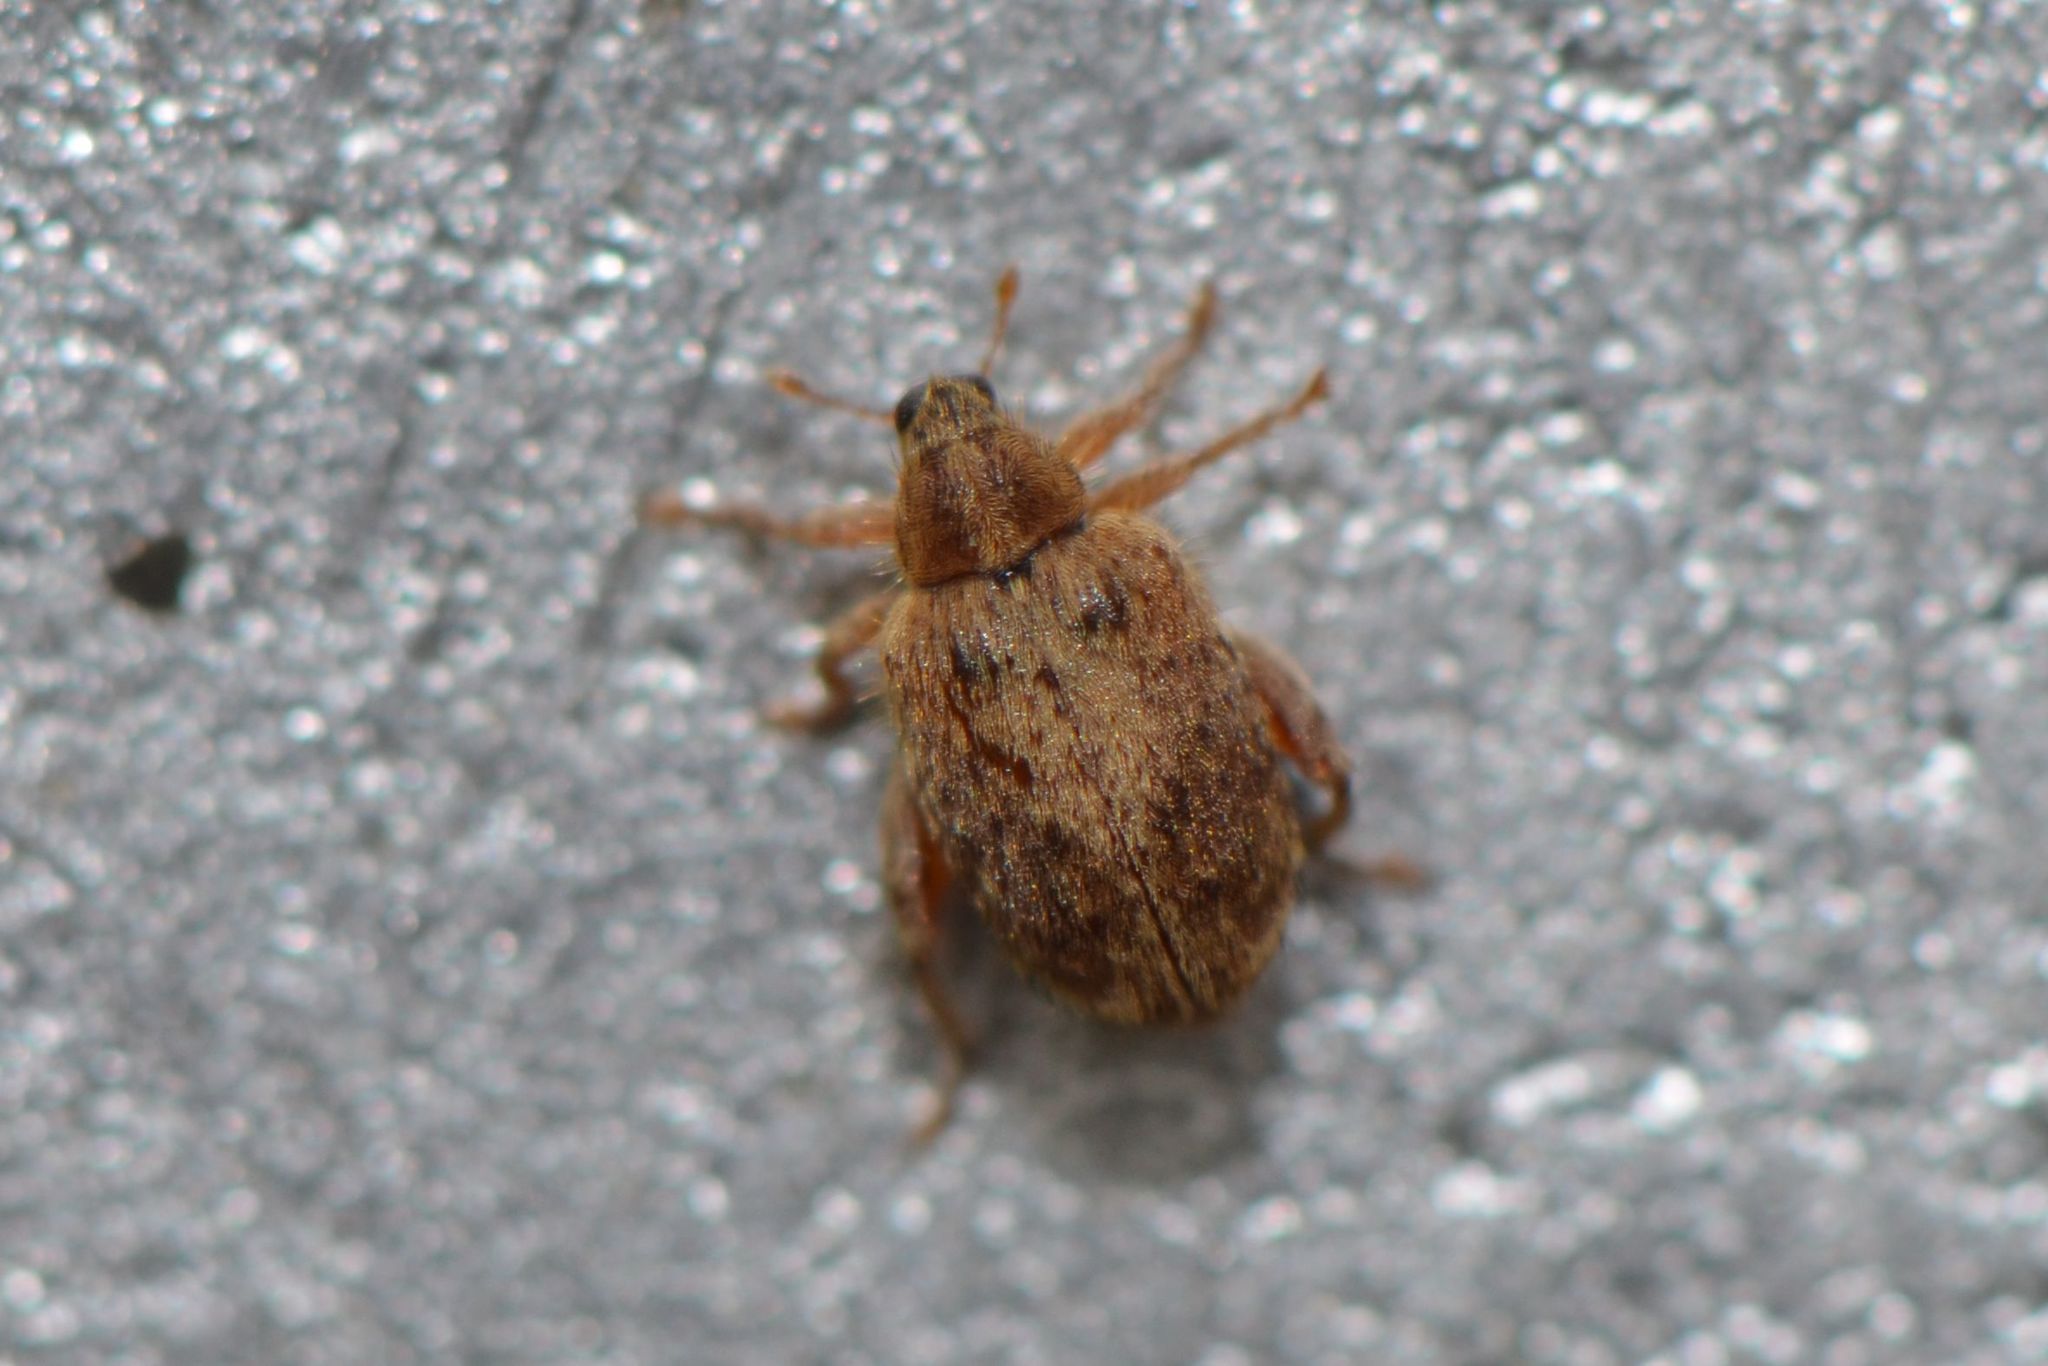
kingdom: Animalia
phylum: Arthropoda
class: Insecta
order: Coleoptera
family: Curculionidae
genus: Orchestes
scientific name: Orchestes quercus
